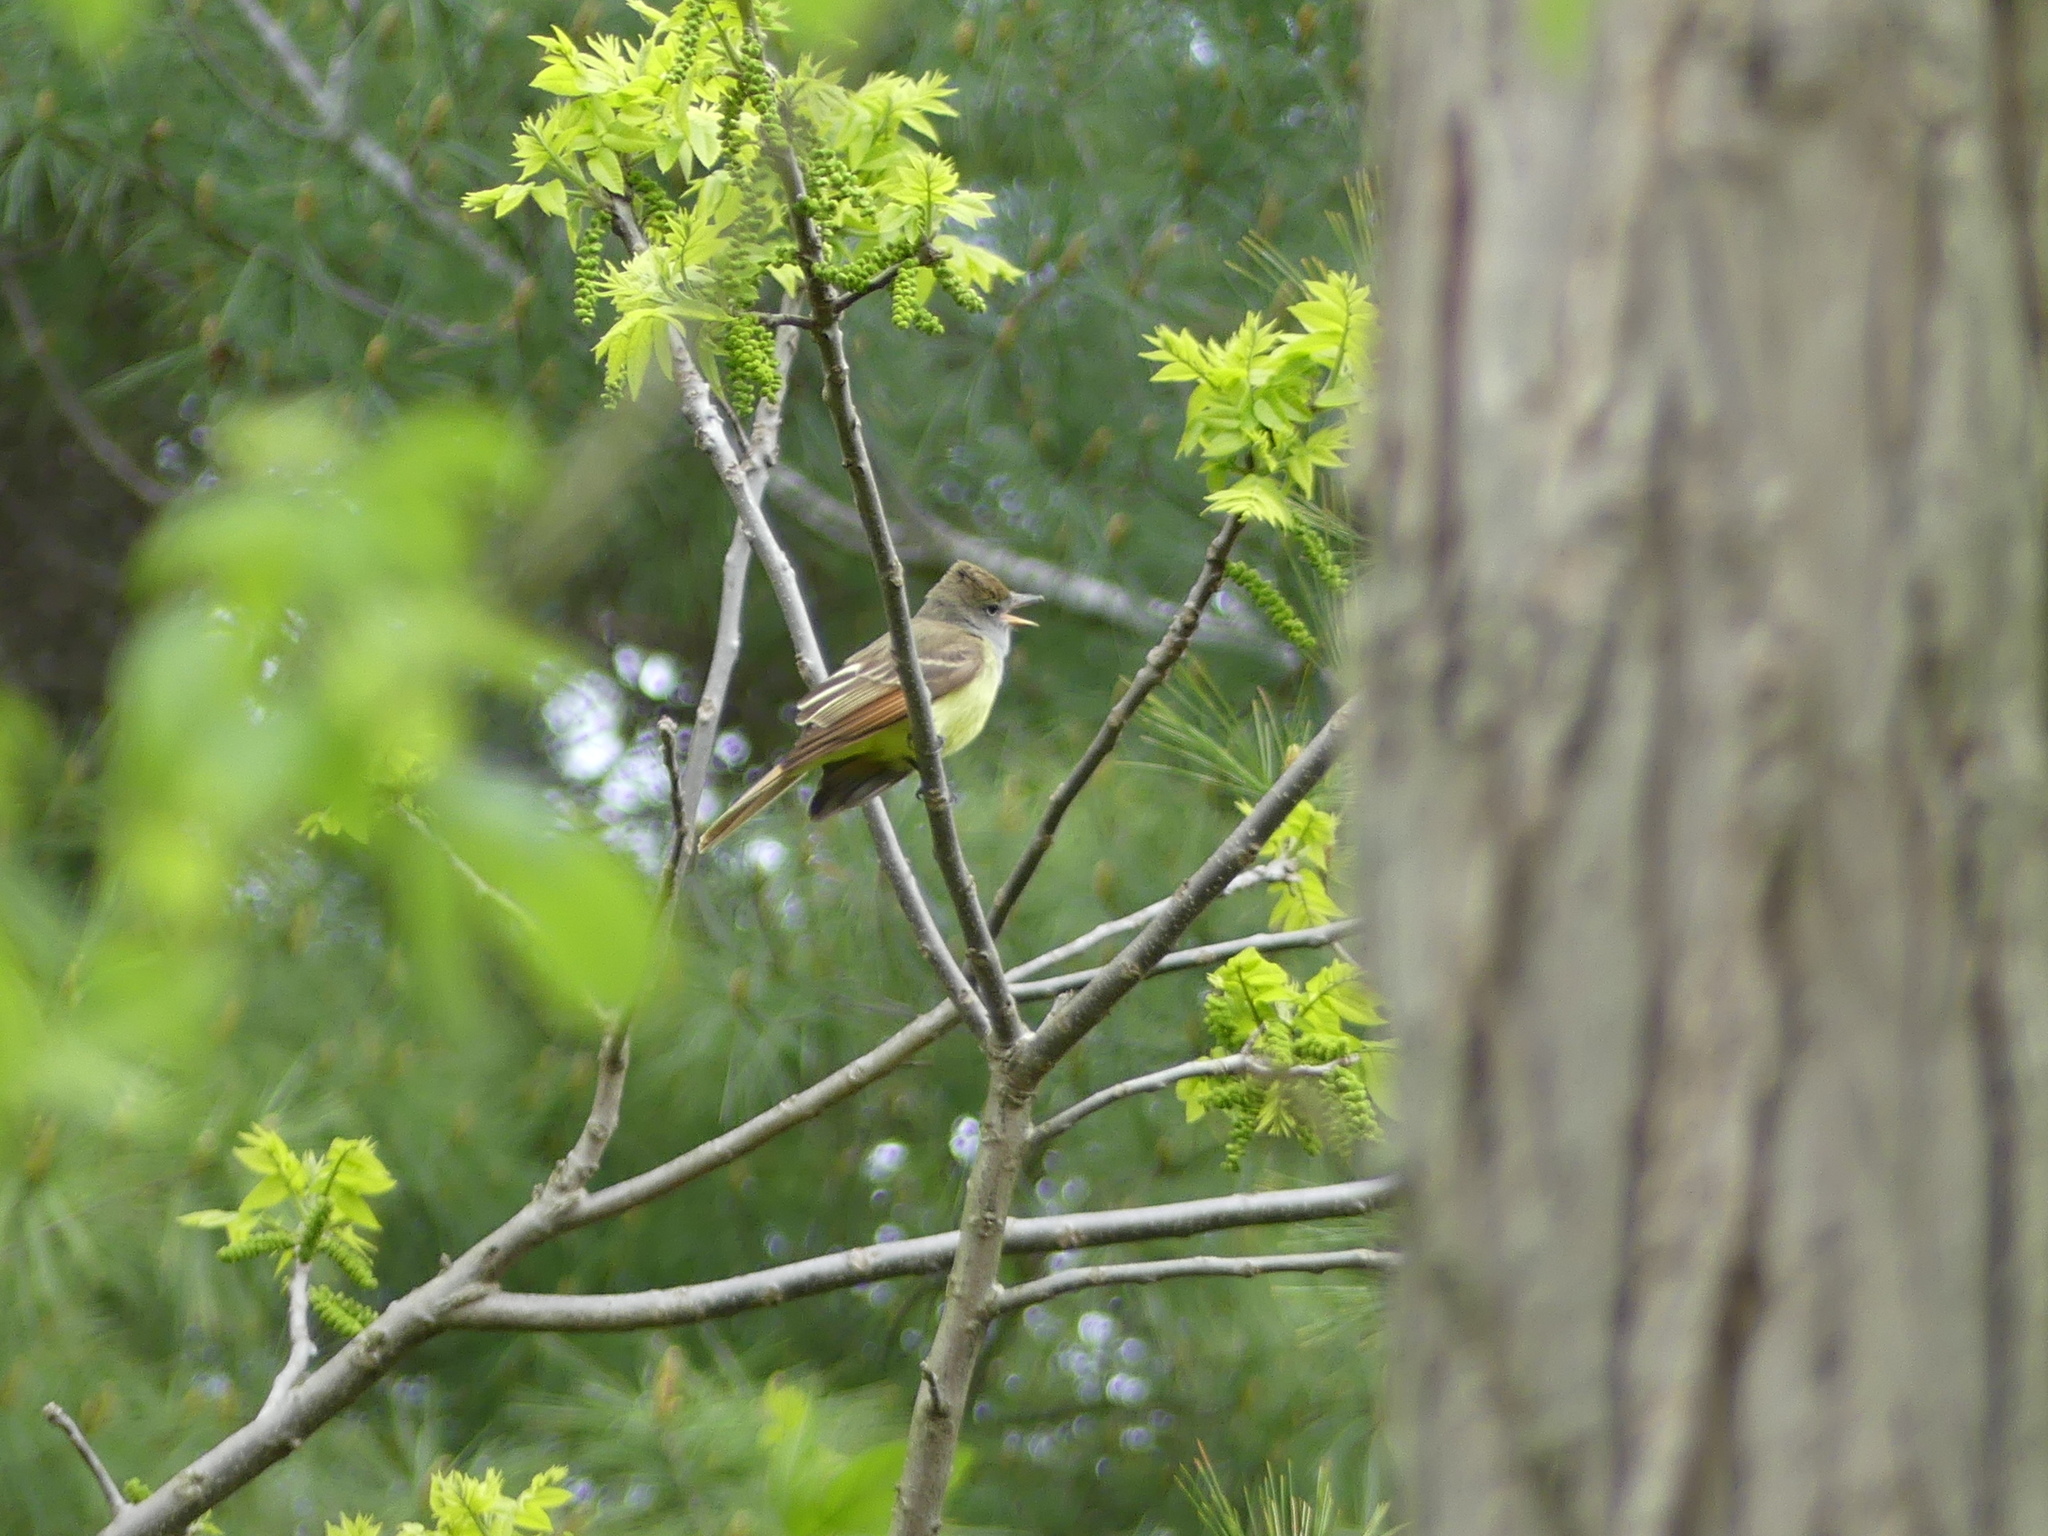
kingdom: Animalia
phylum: Chordata
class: Aves
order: Passeriformes
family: Tyrannidae
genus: Myiarchus
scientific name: Myiarchus crinitus
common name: Great crested flycatcher
